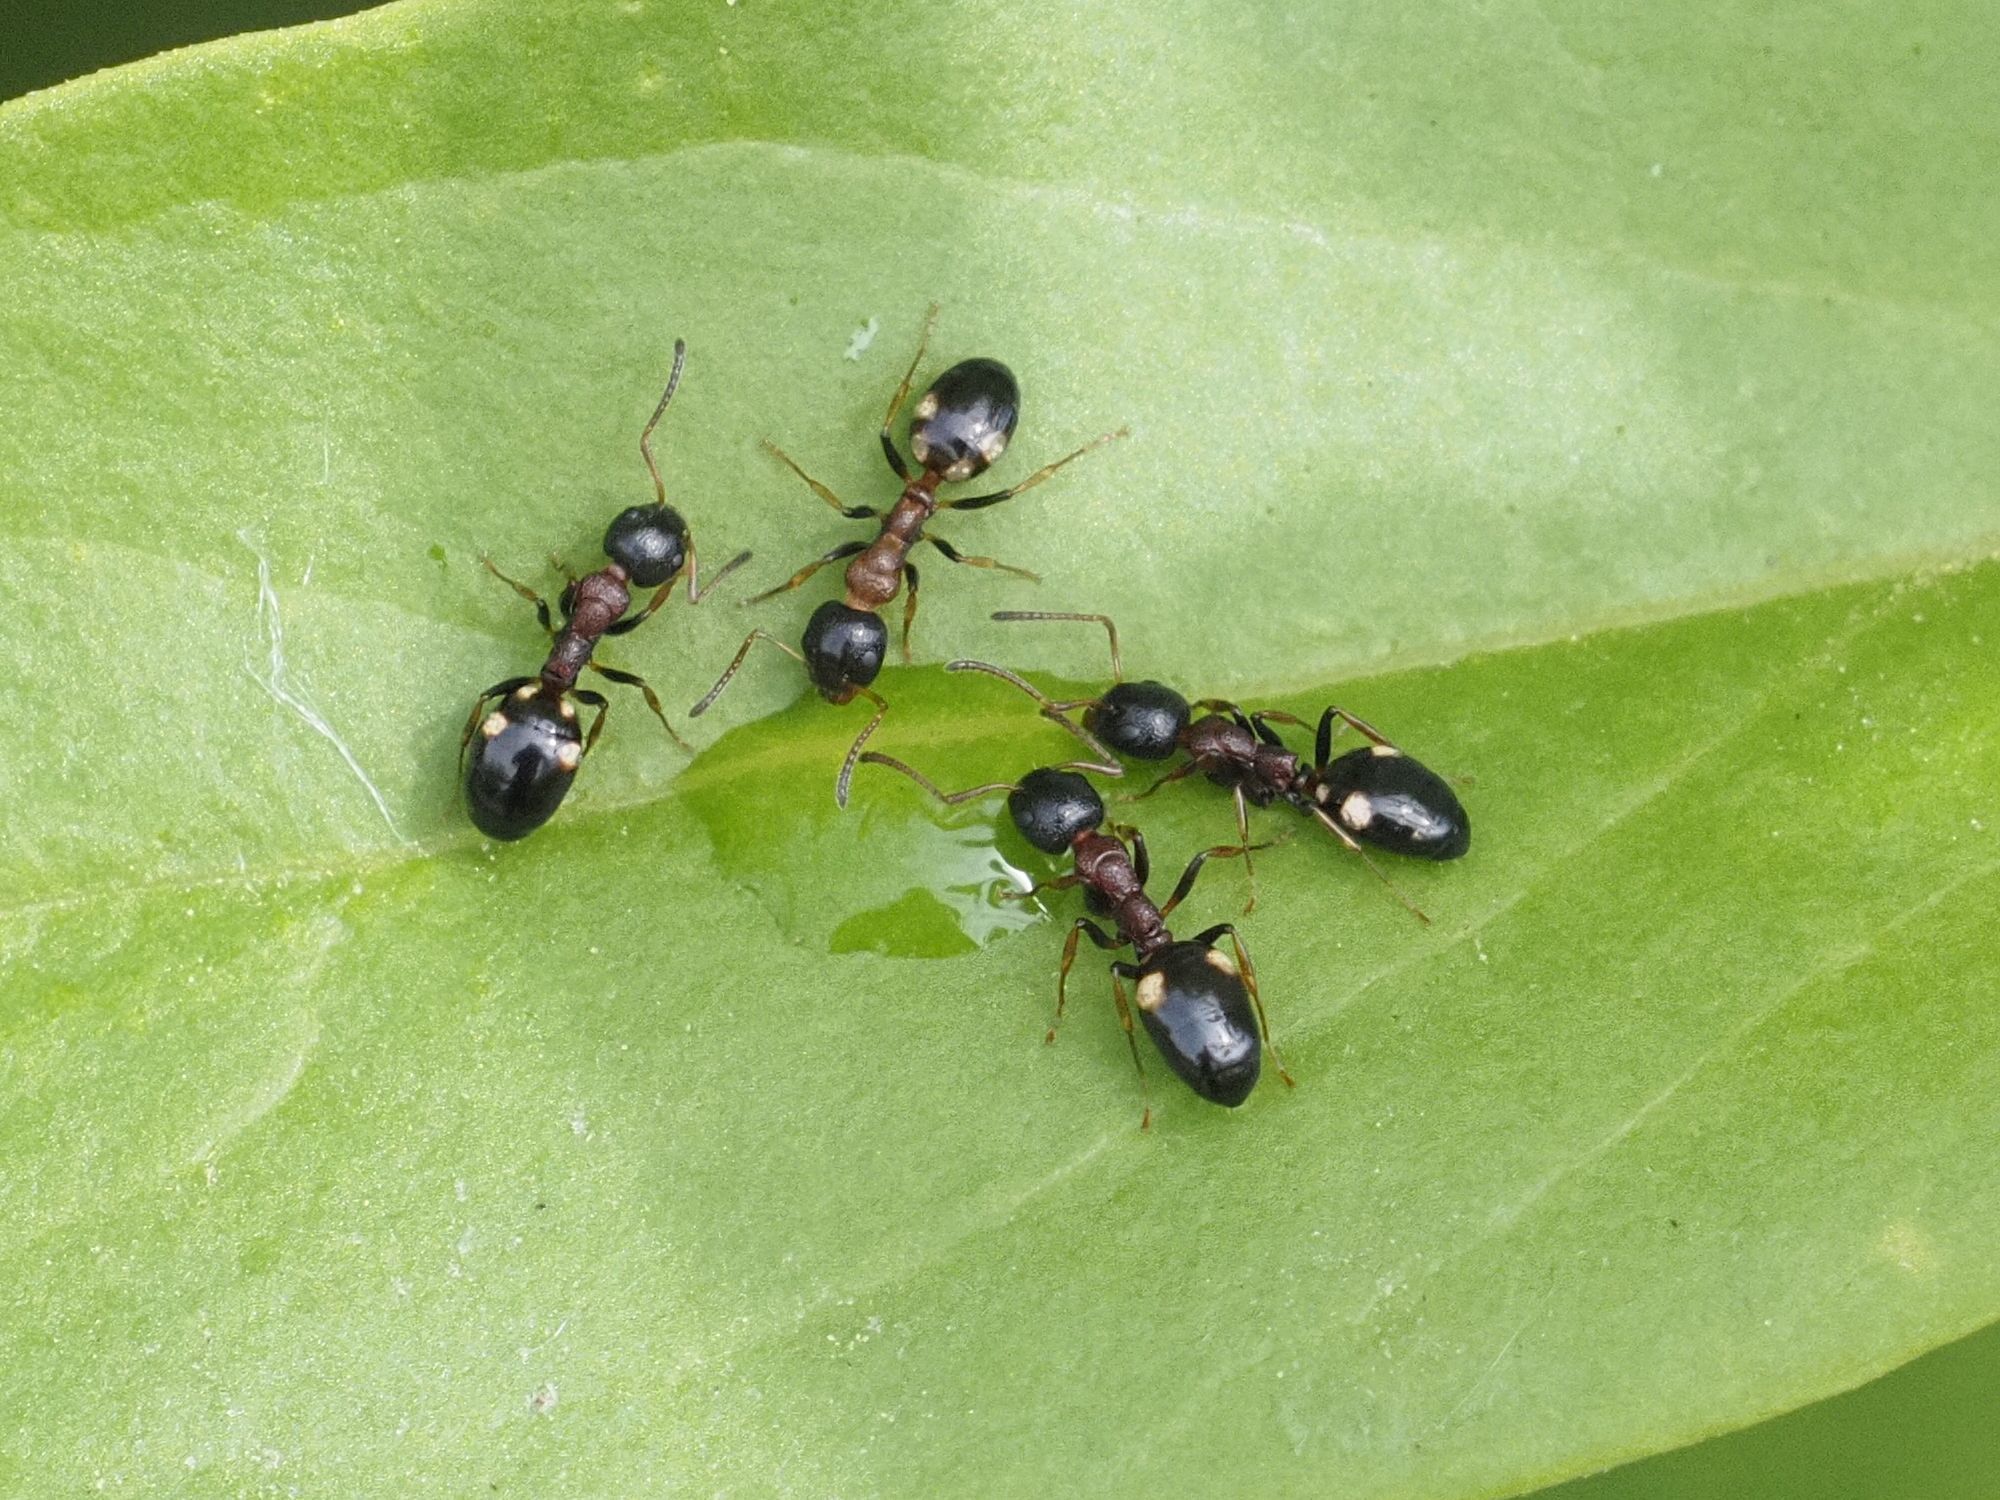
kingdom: Animalia
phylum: Arthropoda
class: Insecta
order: Hymenoptera
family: Formicidae
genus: Dolichoderus
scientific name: Dolichoderus quadripunctatus
